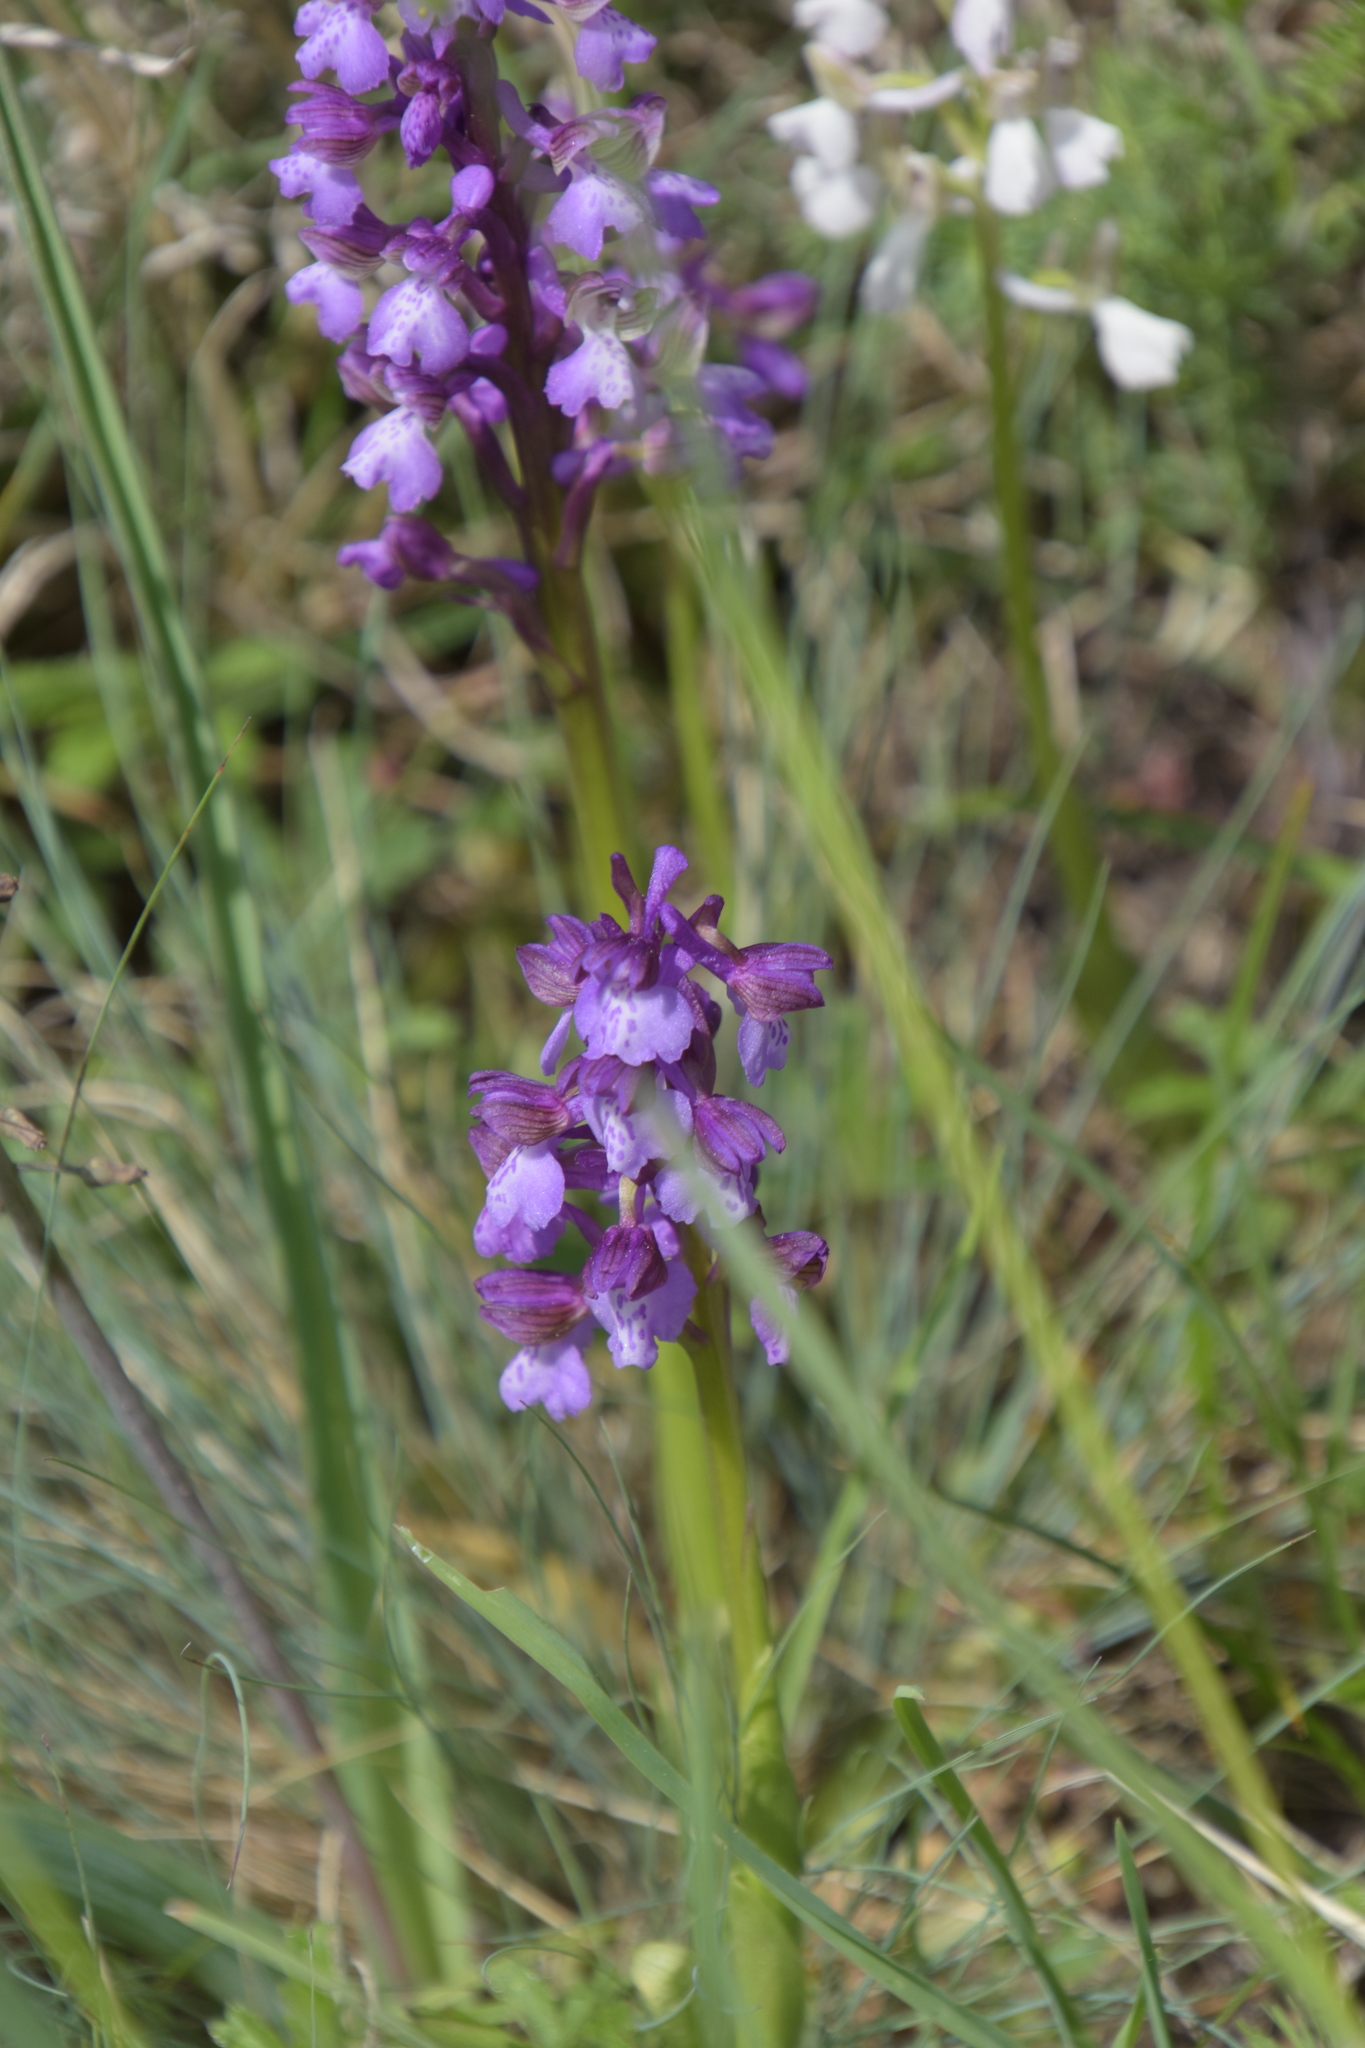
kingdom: Plantae
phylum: Tracheophyta
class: Liliopsida
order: Asparagales
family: Orchidaceae
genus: Anacamptis
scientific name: Anacamptis morio
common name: Green-winged orchid
